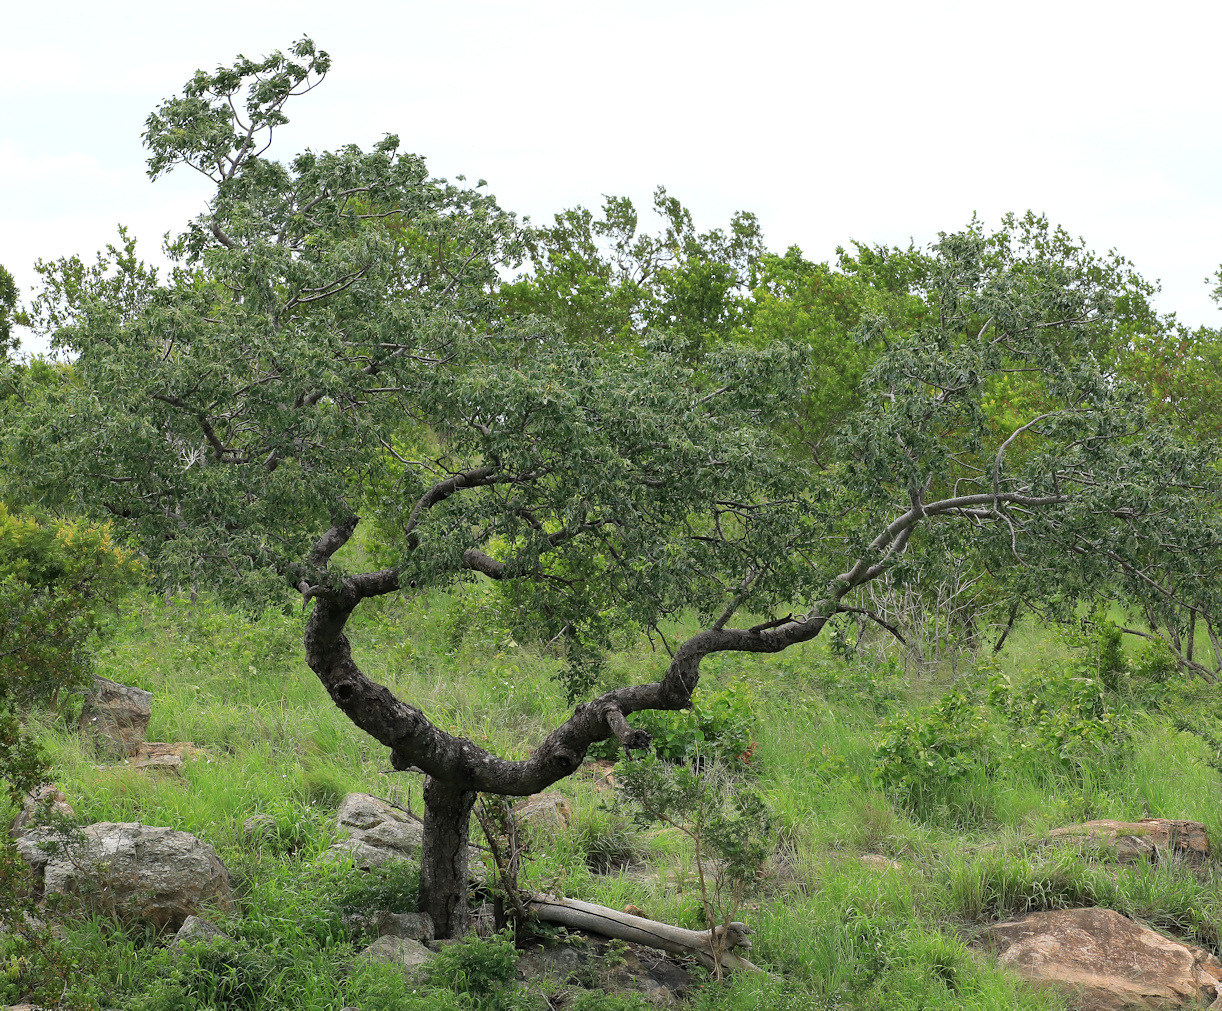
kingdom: Plantae
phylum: Tracheophyta
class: Magnoliopsida
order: Sapindales
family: Anacardiaceae
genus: Sclerocarya
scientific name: Sclerocarya birrea
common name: Marula
